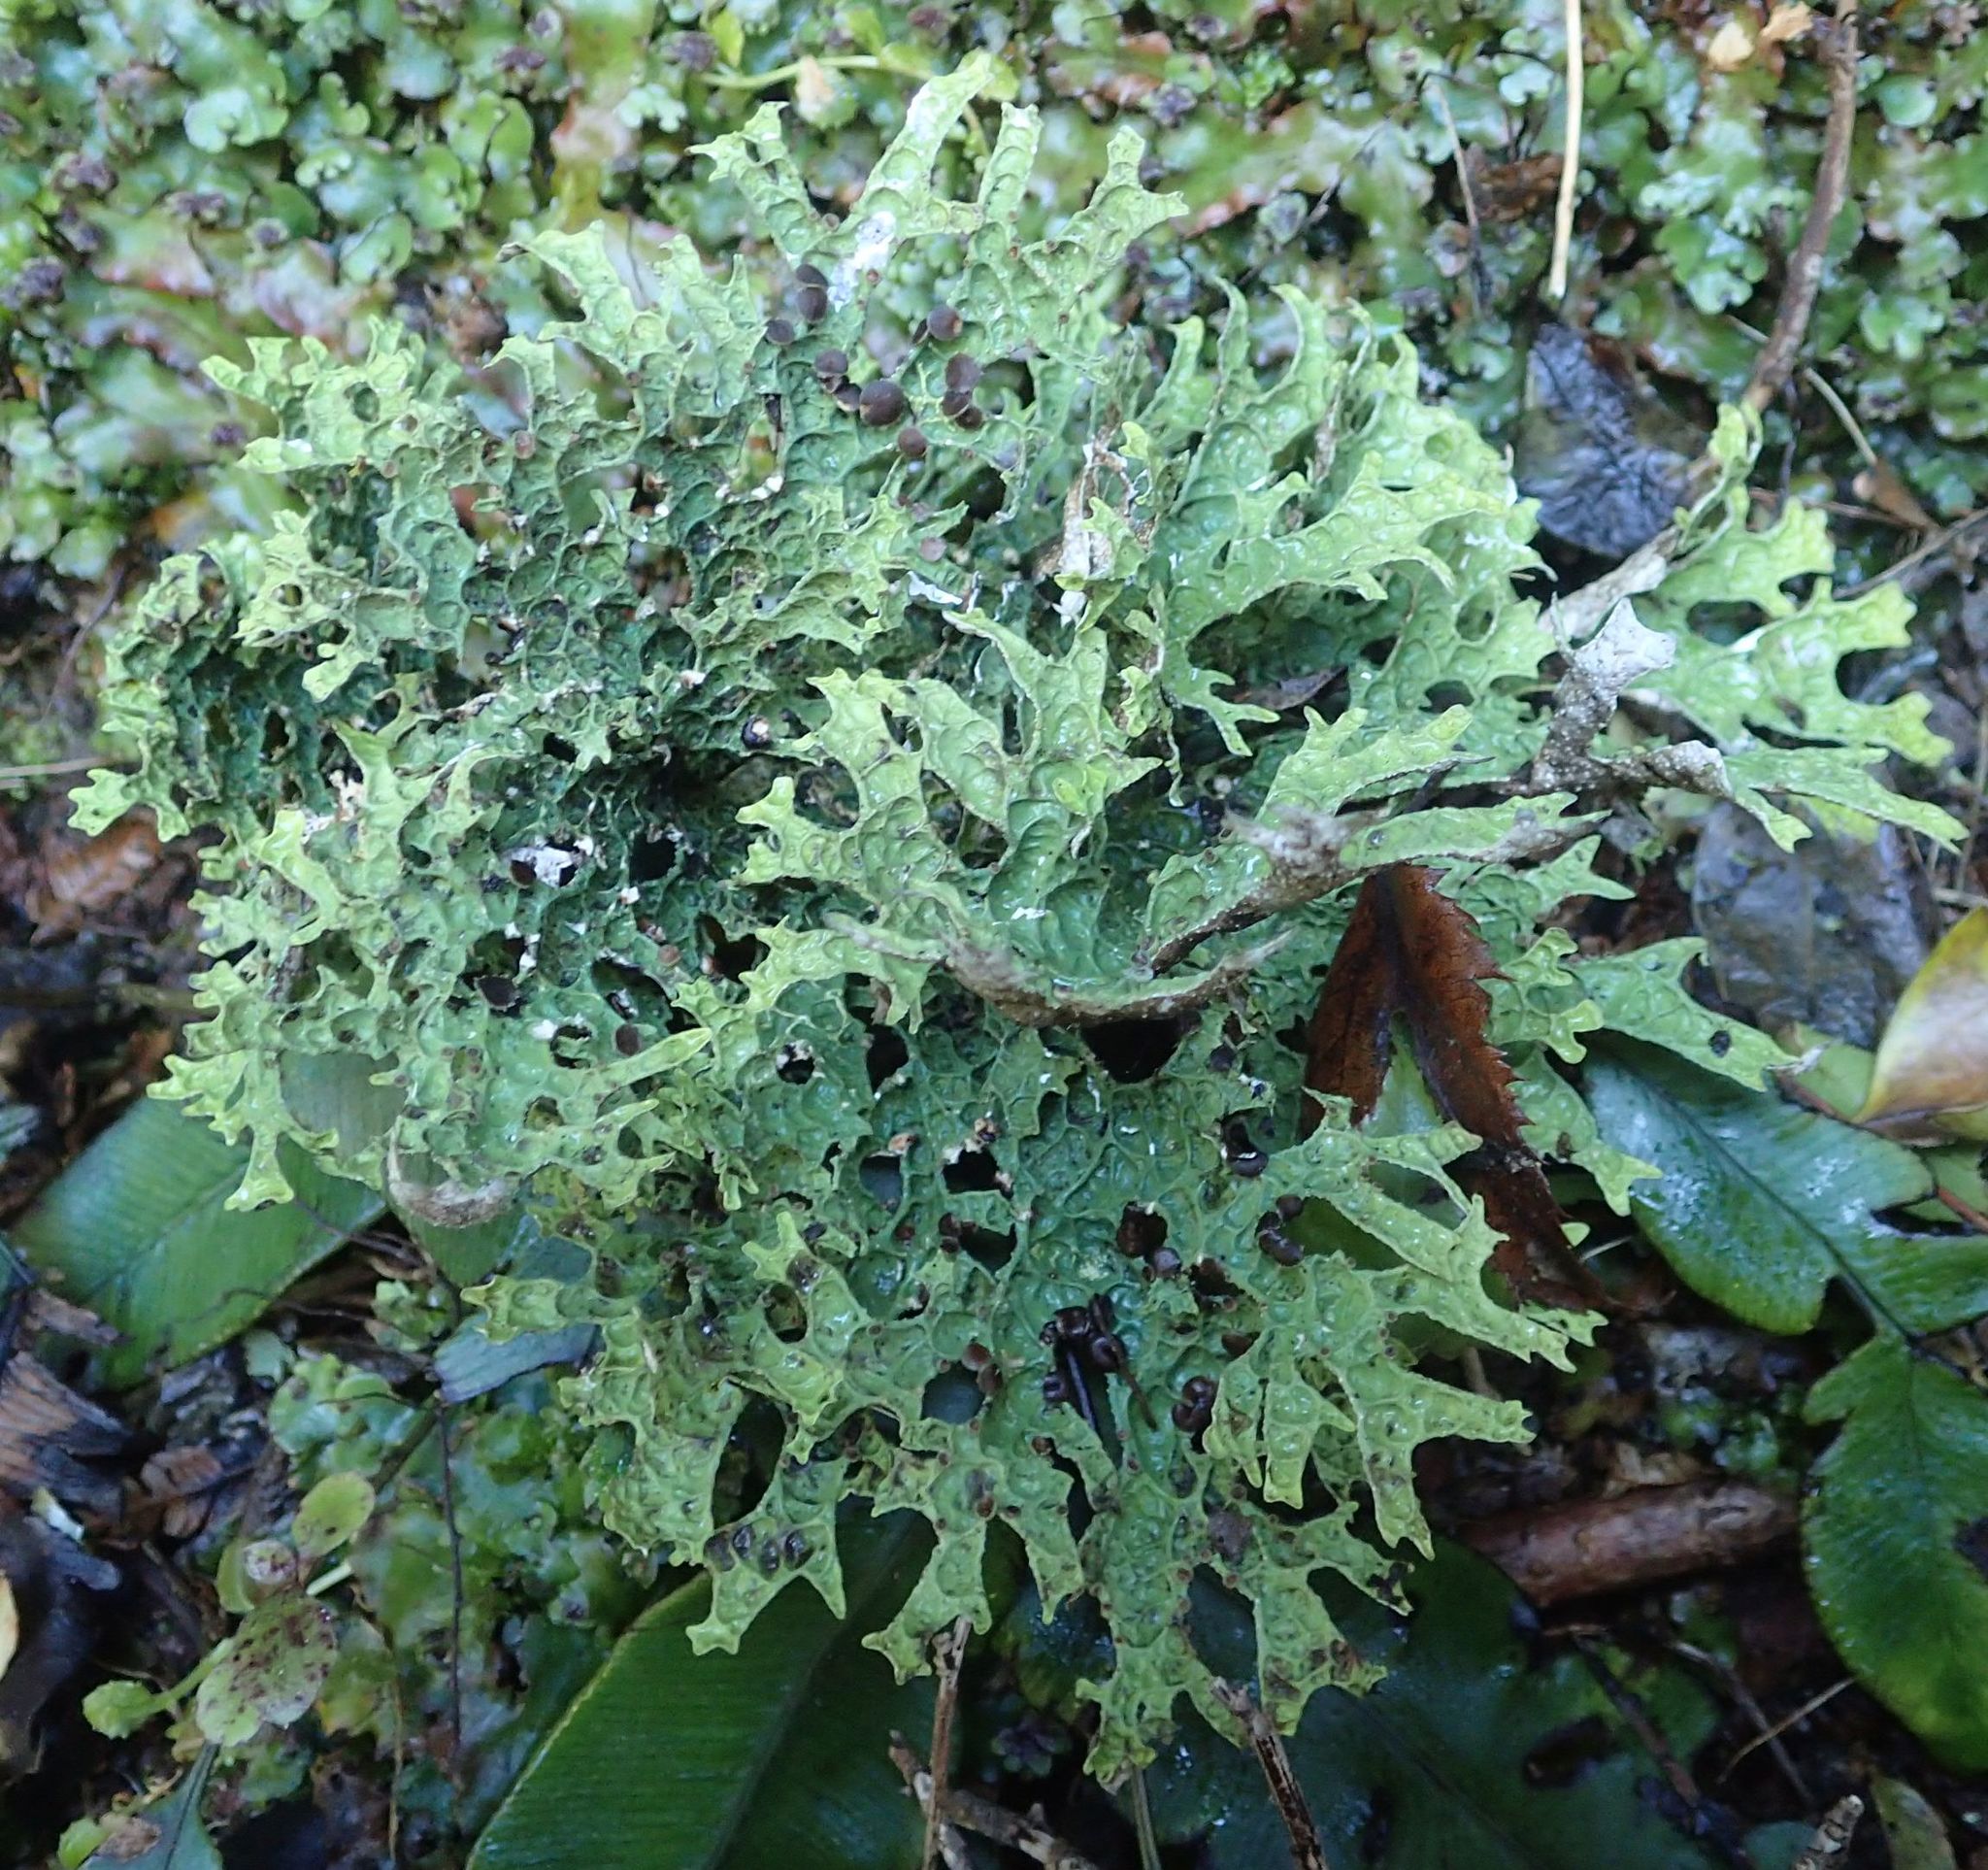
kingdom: Fungi
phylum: Ascomycota
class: Lecanoromycetes
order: Peltigerales
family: Lobariaceae
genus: Pseudocyphellaria
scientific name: Pseudocyphellaria faveolata
